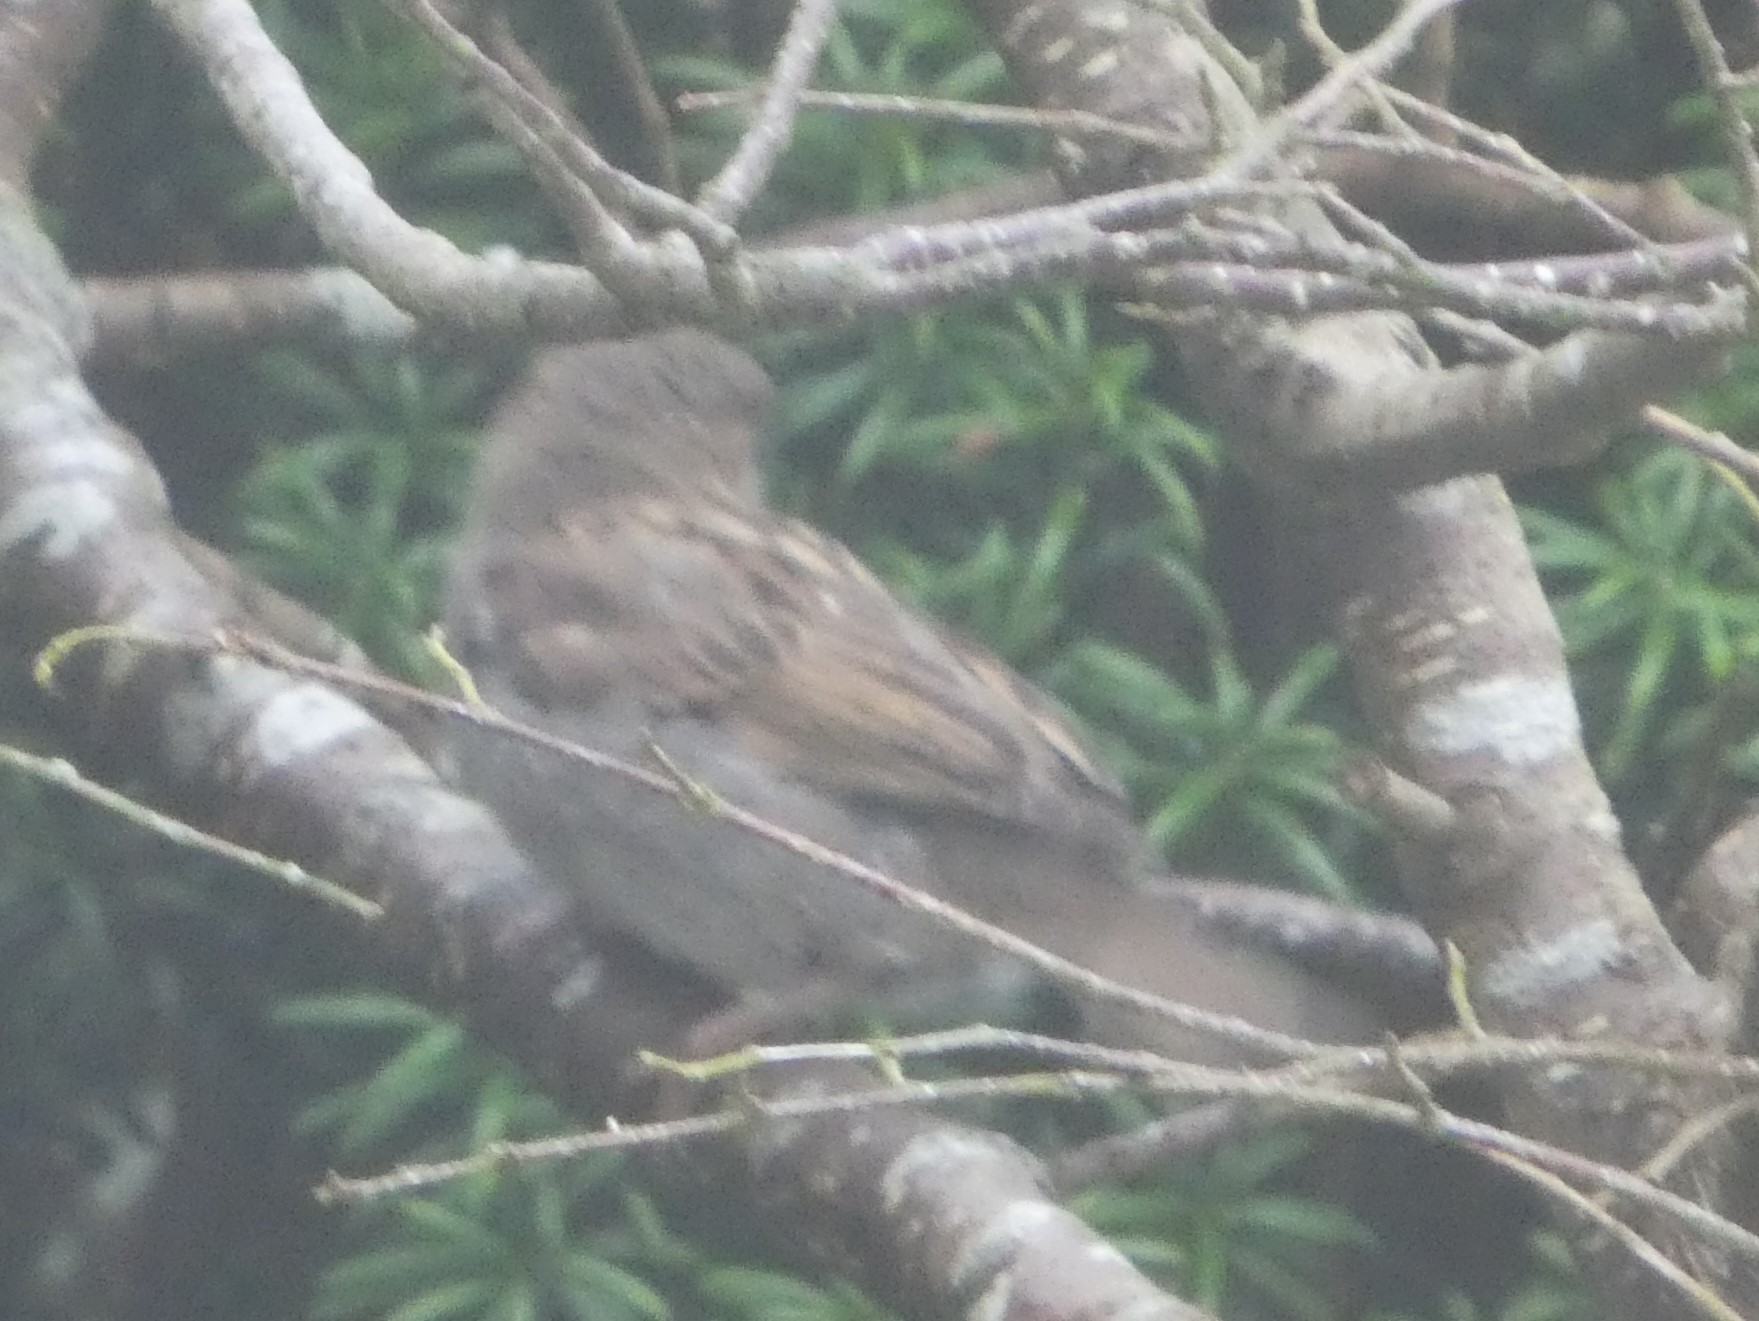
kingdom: Animalia
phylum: Chordata
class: Aves
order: Passeriformes
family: Passeridae
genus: Passer
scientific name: Passer domesticus
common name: House sparrow
